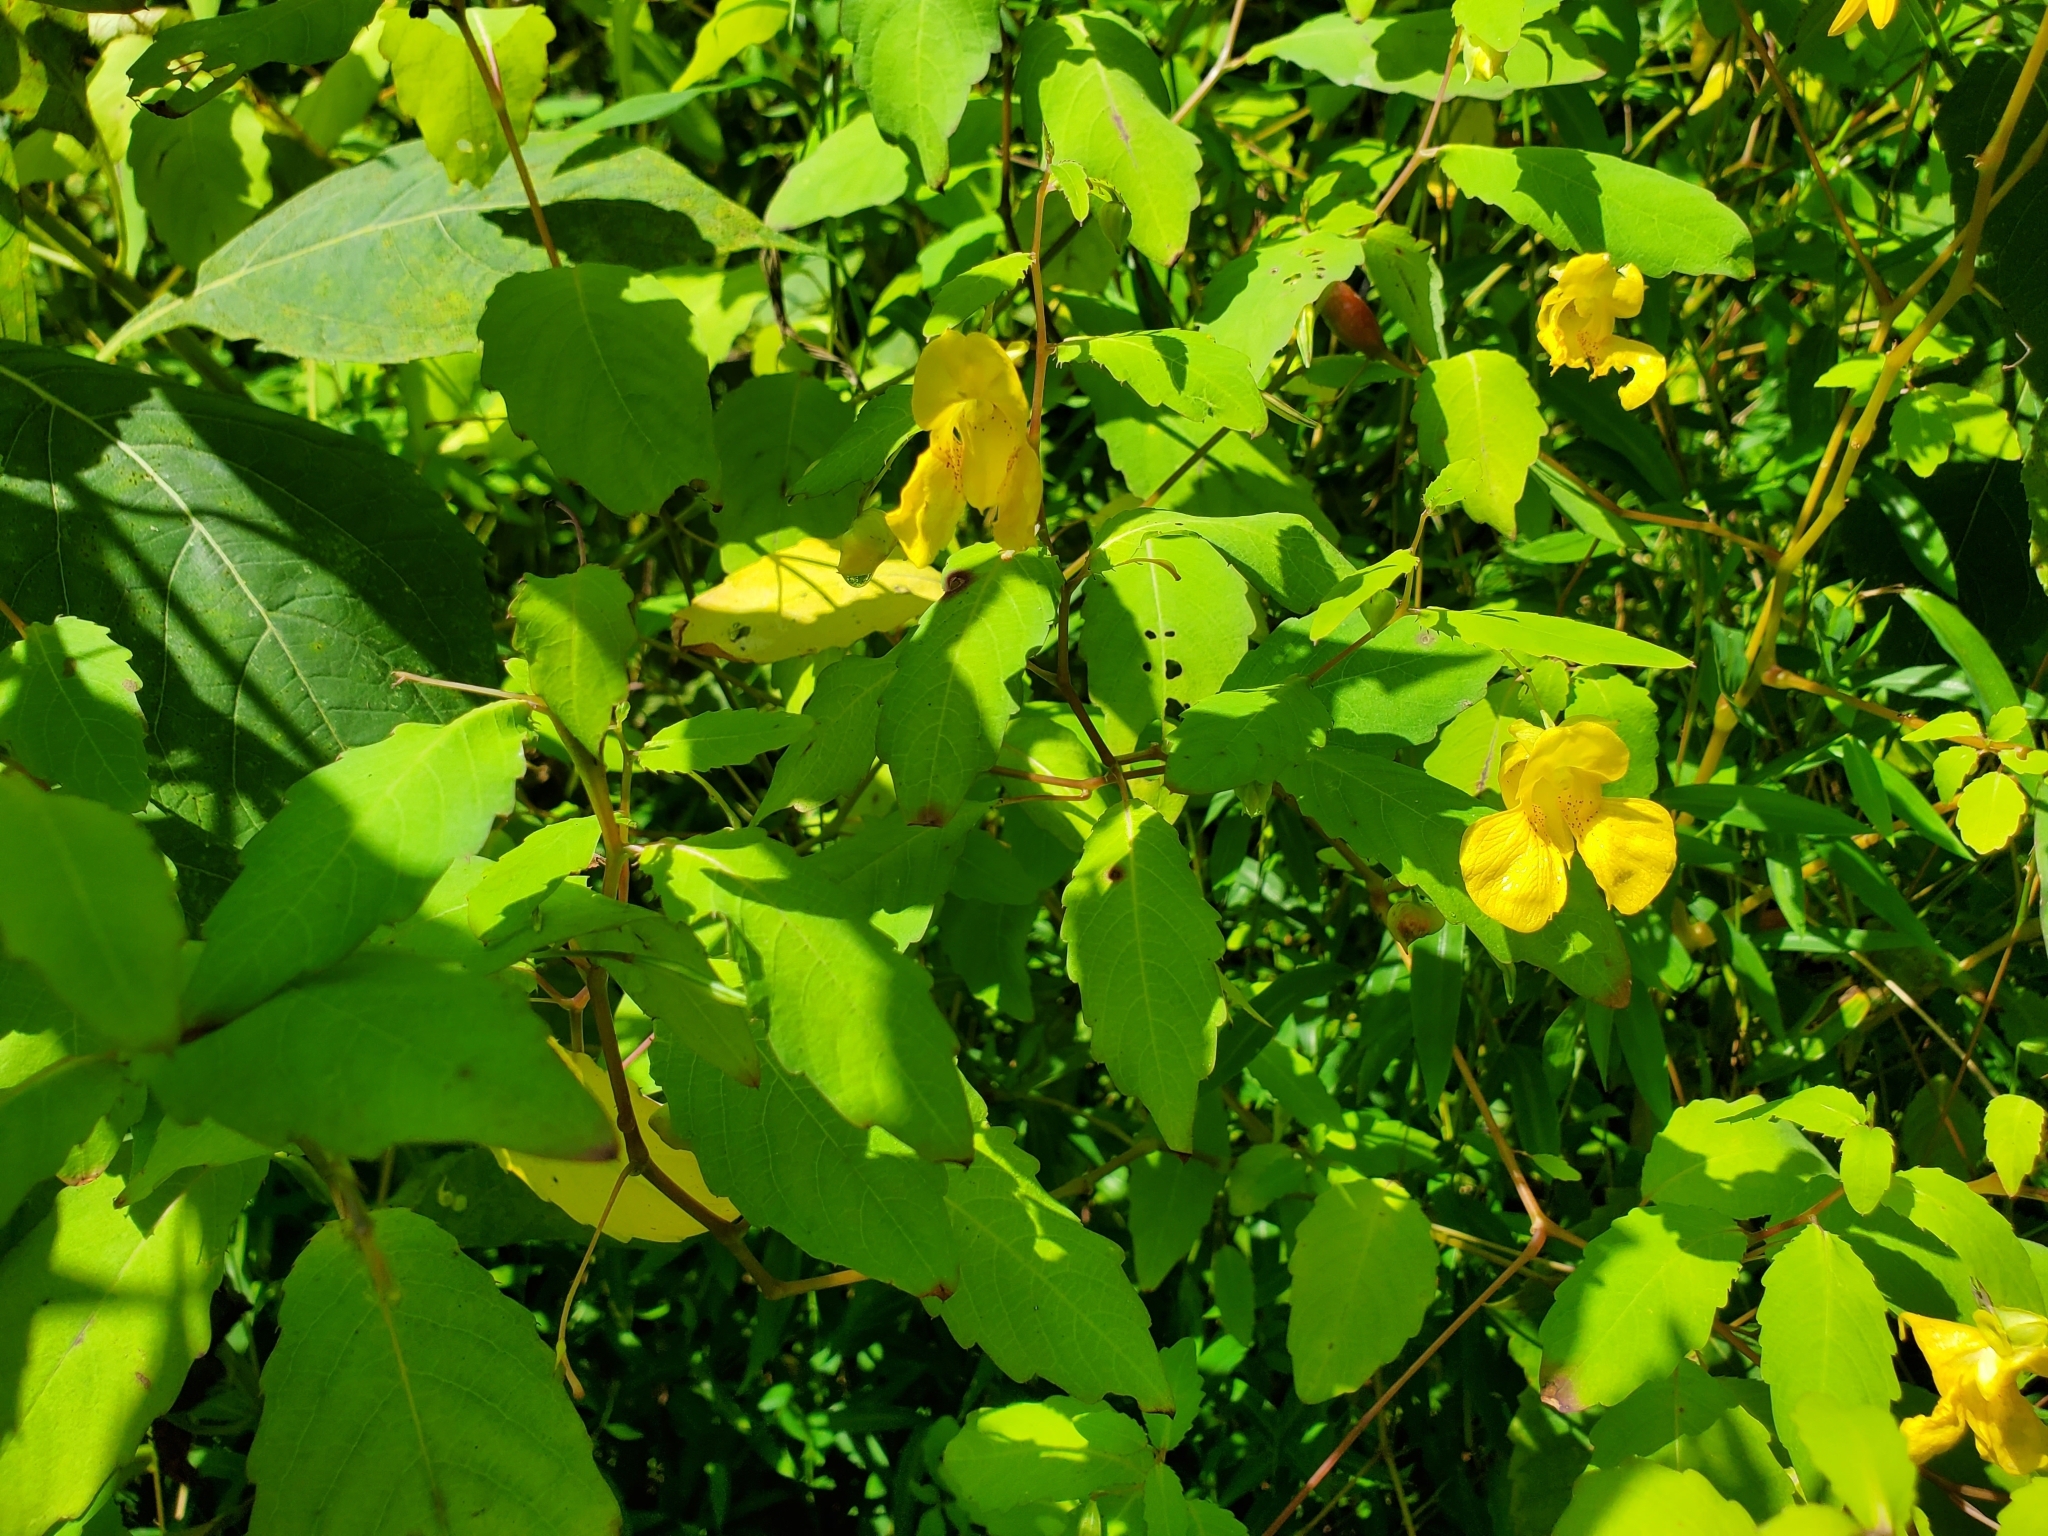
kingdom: Plantae
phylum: Tracheophyta
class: Magnoliopsida
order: Ericales
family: Balsaminaceae
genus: Impatiens
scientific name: Impatiens pallida
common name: Pale snapweed
